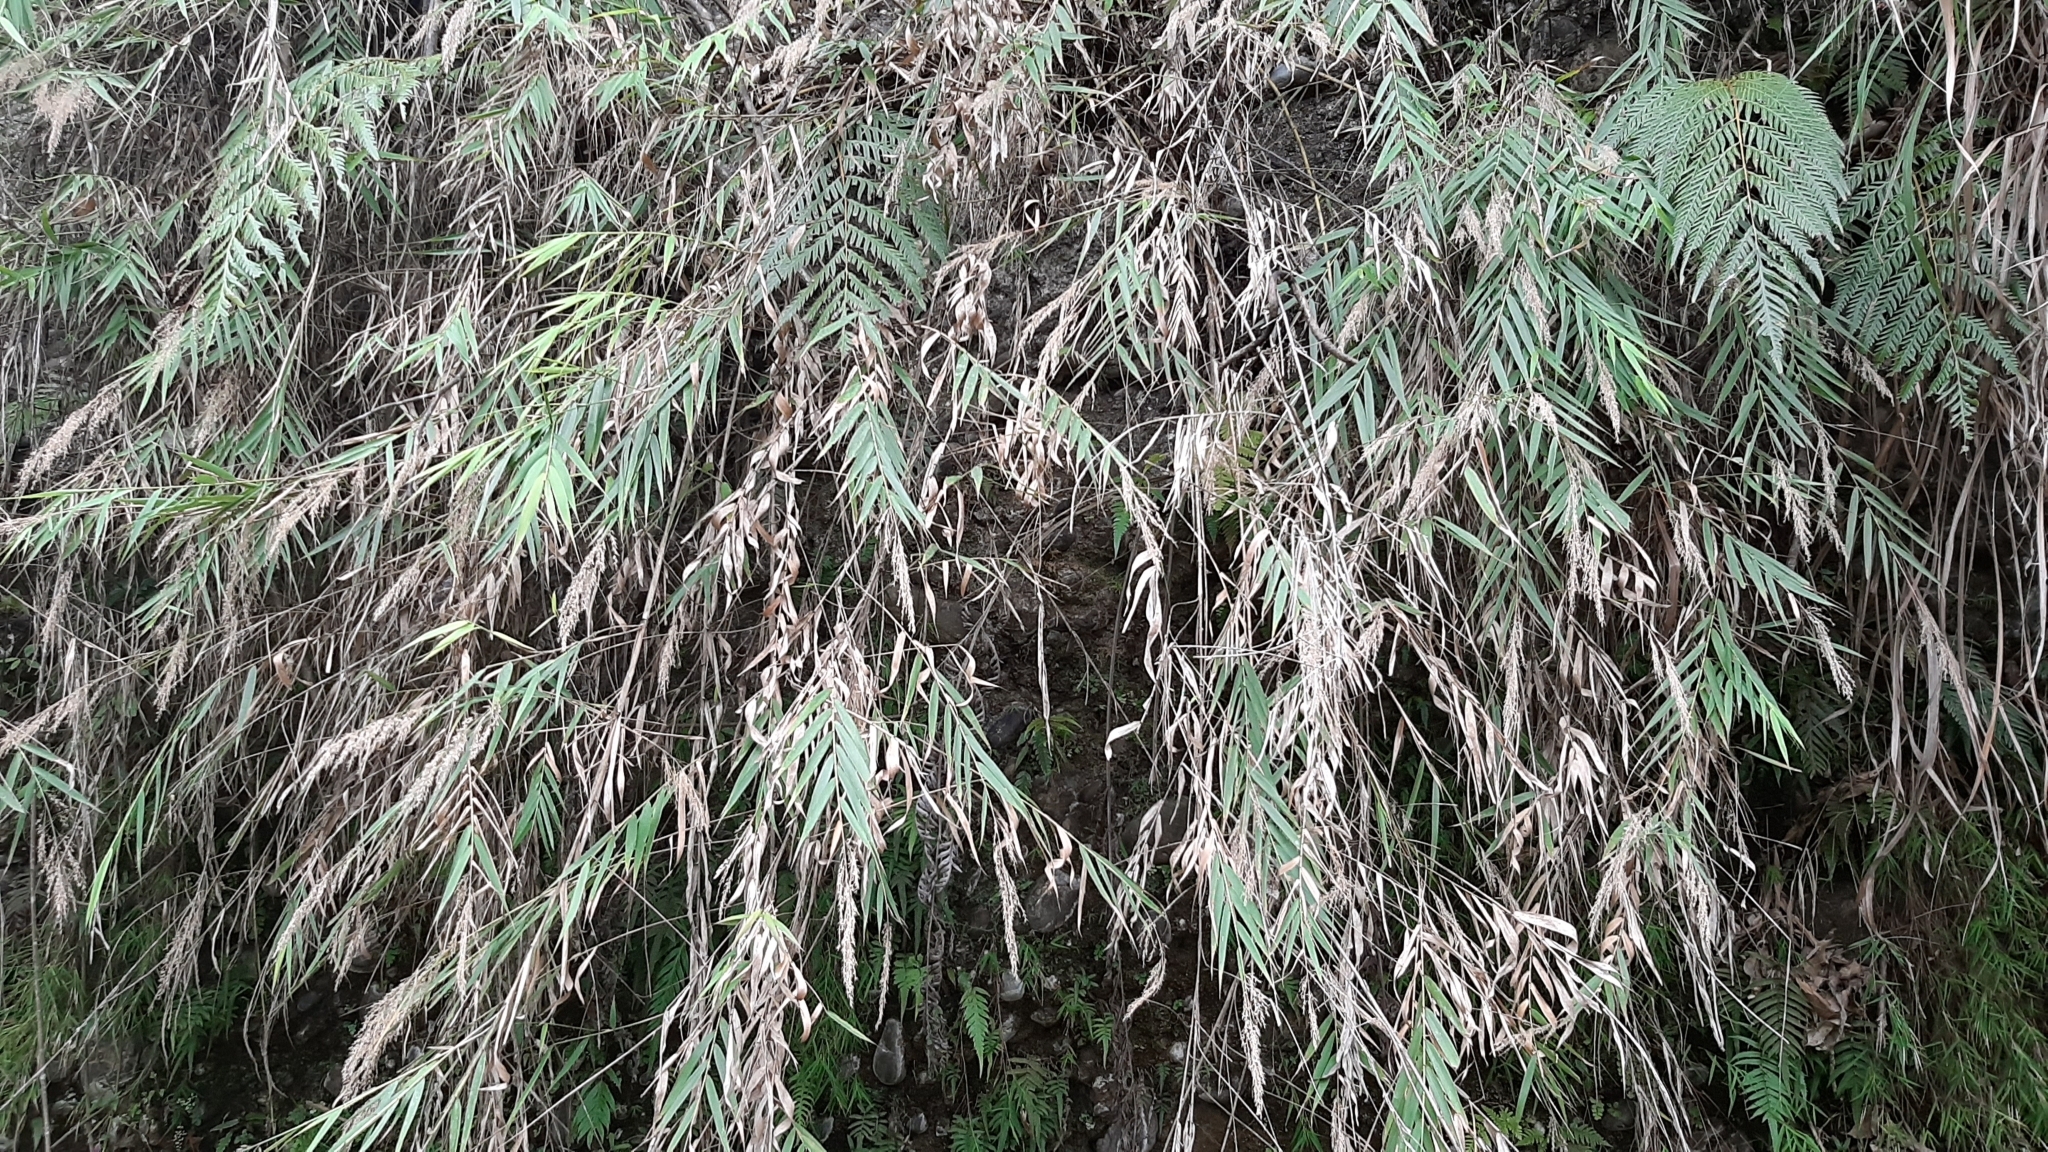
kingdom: Plantae
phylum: Tracheophyta
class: Liliopsida
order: Poales
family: Poaceae
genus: Arundo
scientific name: Arundo formosana
